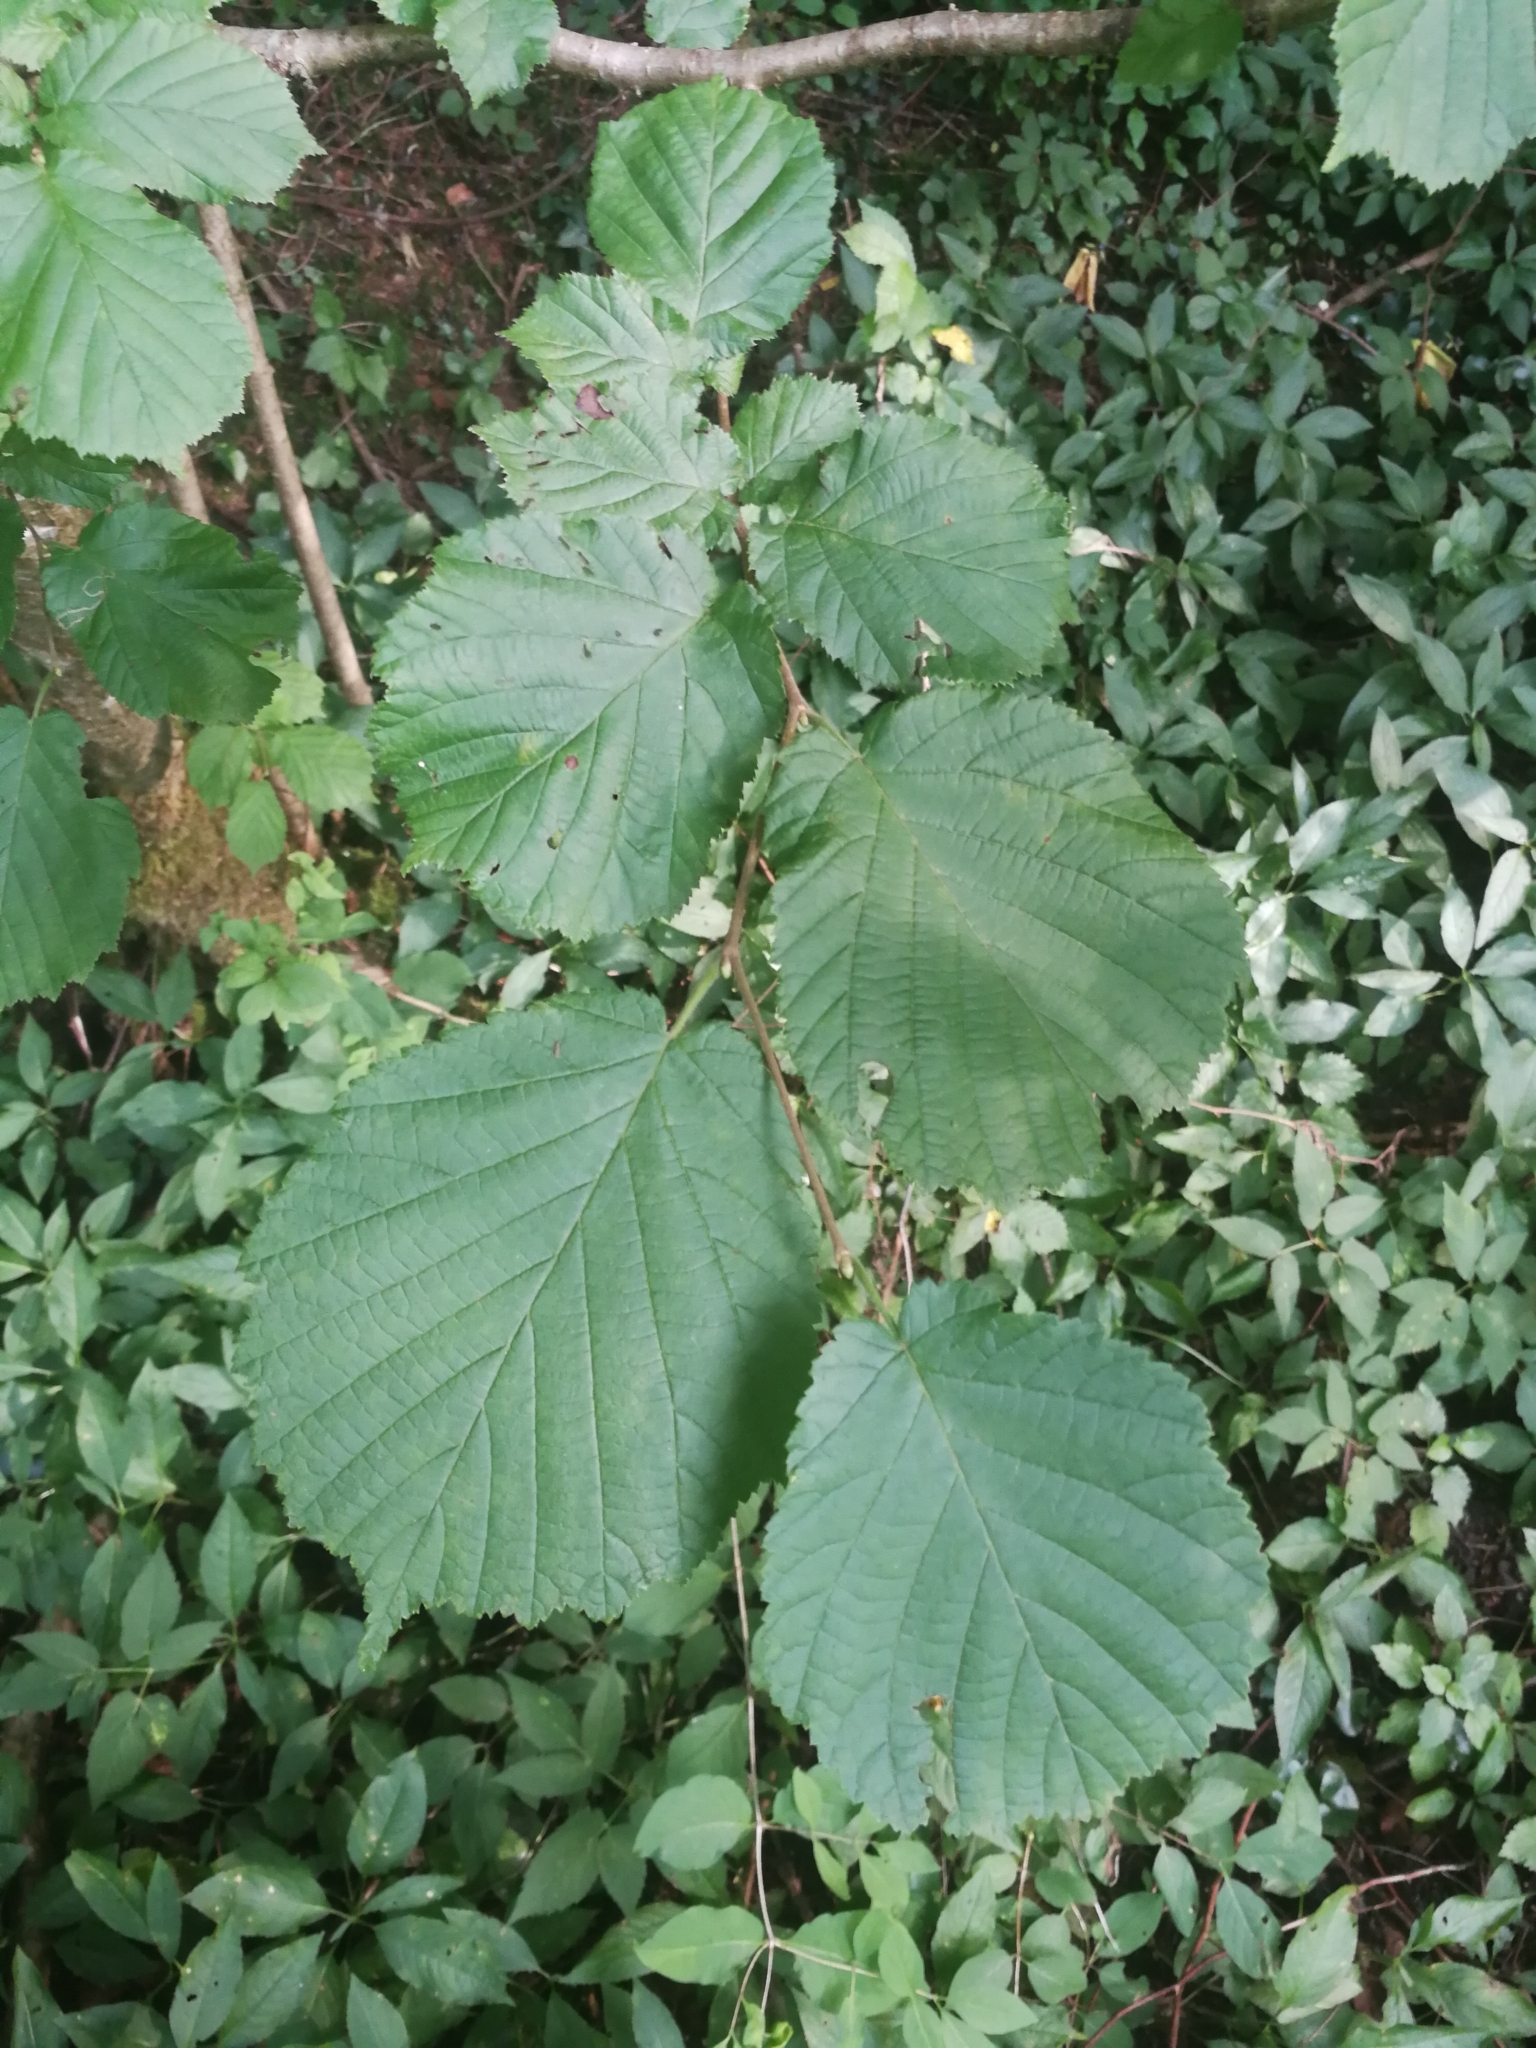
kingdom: Plantae
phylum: Tracheophyta
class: Magnoliopsida
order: Fagales
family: Betulaceae
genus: Corylus
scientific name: Corylus avellana
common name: European hazel
